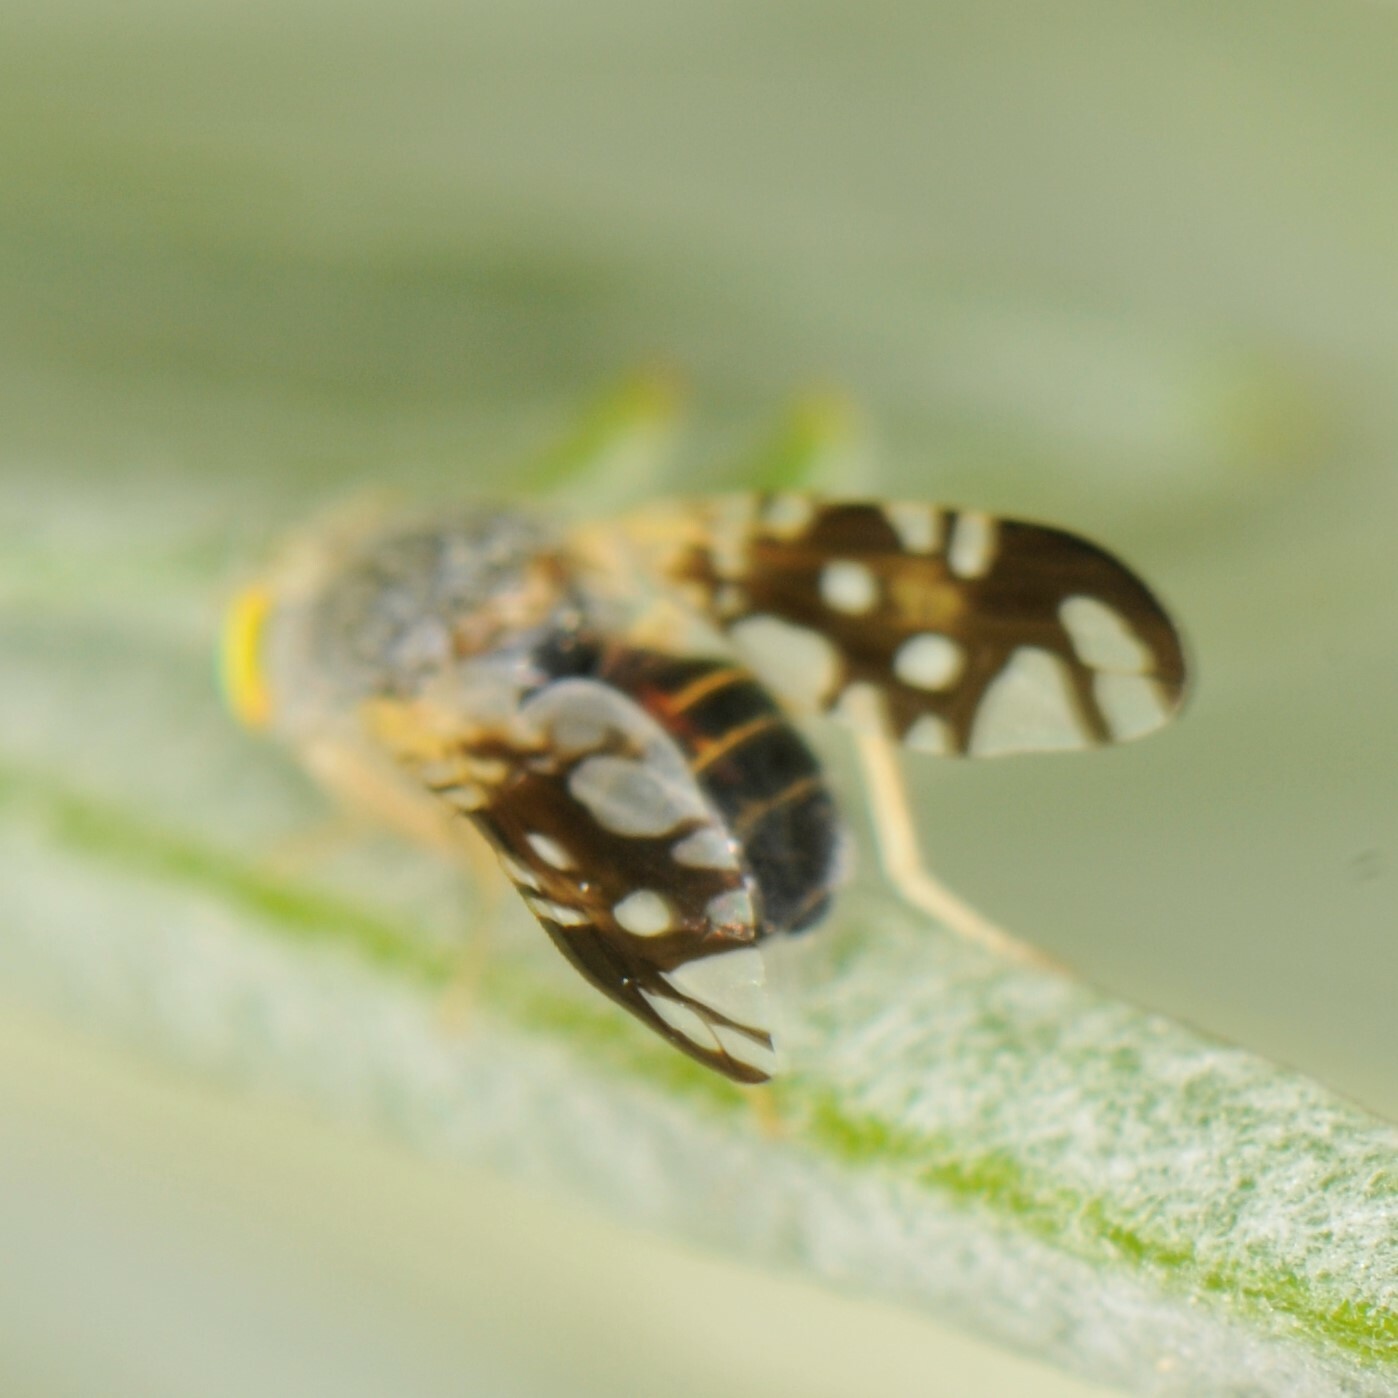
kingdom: Animalia
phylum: Arthropoda
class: Insecta
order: Diptera
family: Tephritidae
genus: Aciurina
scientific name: Aciurina trixa
